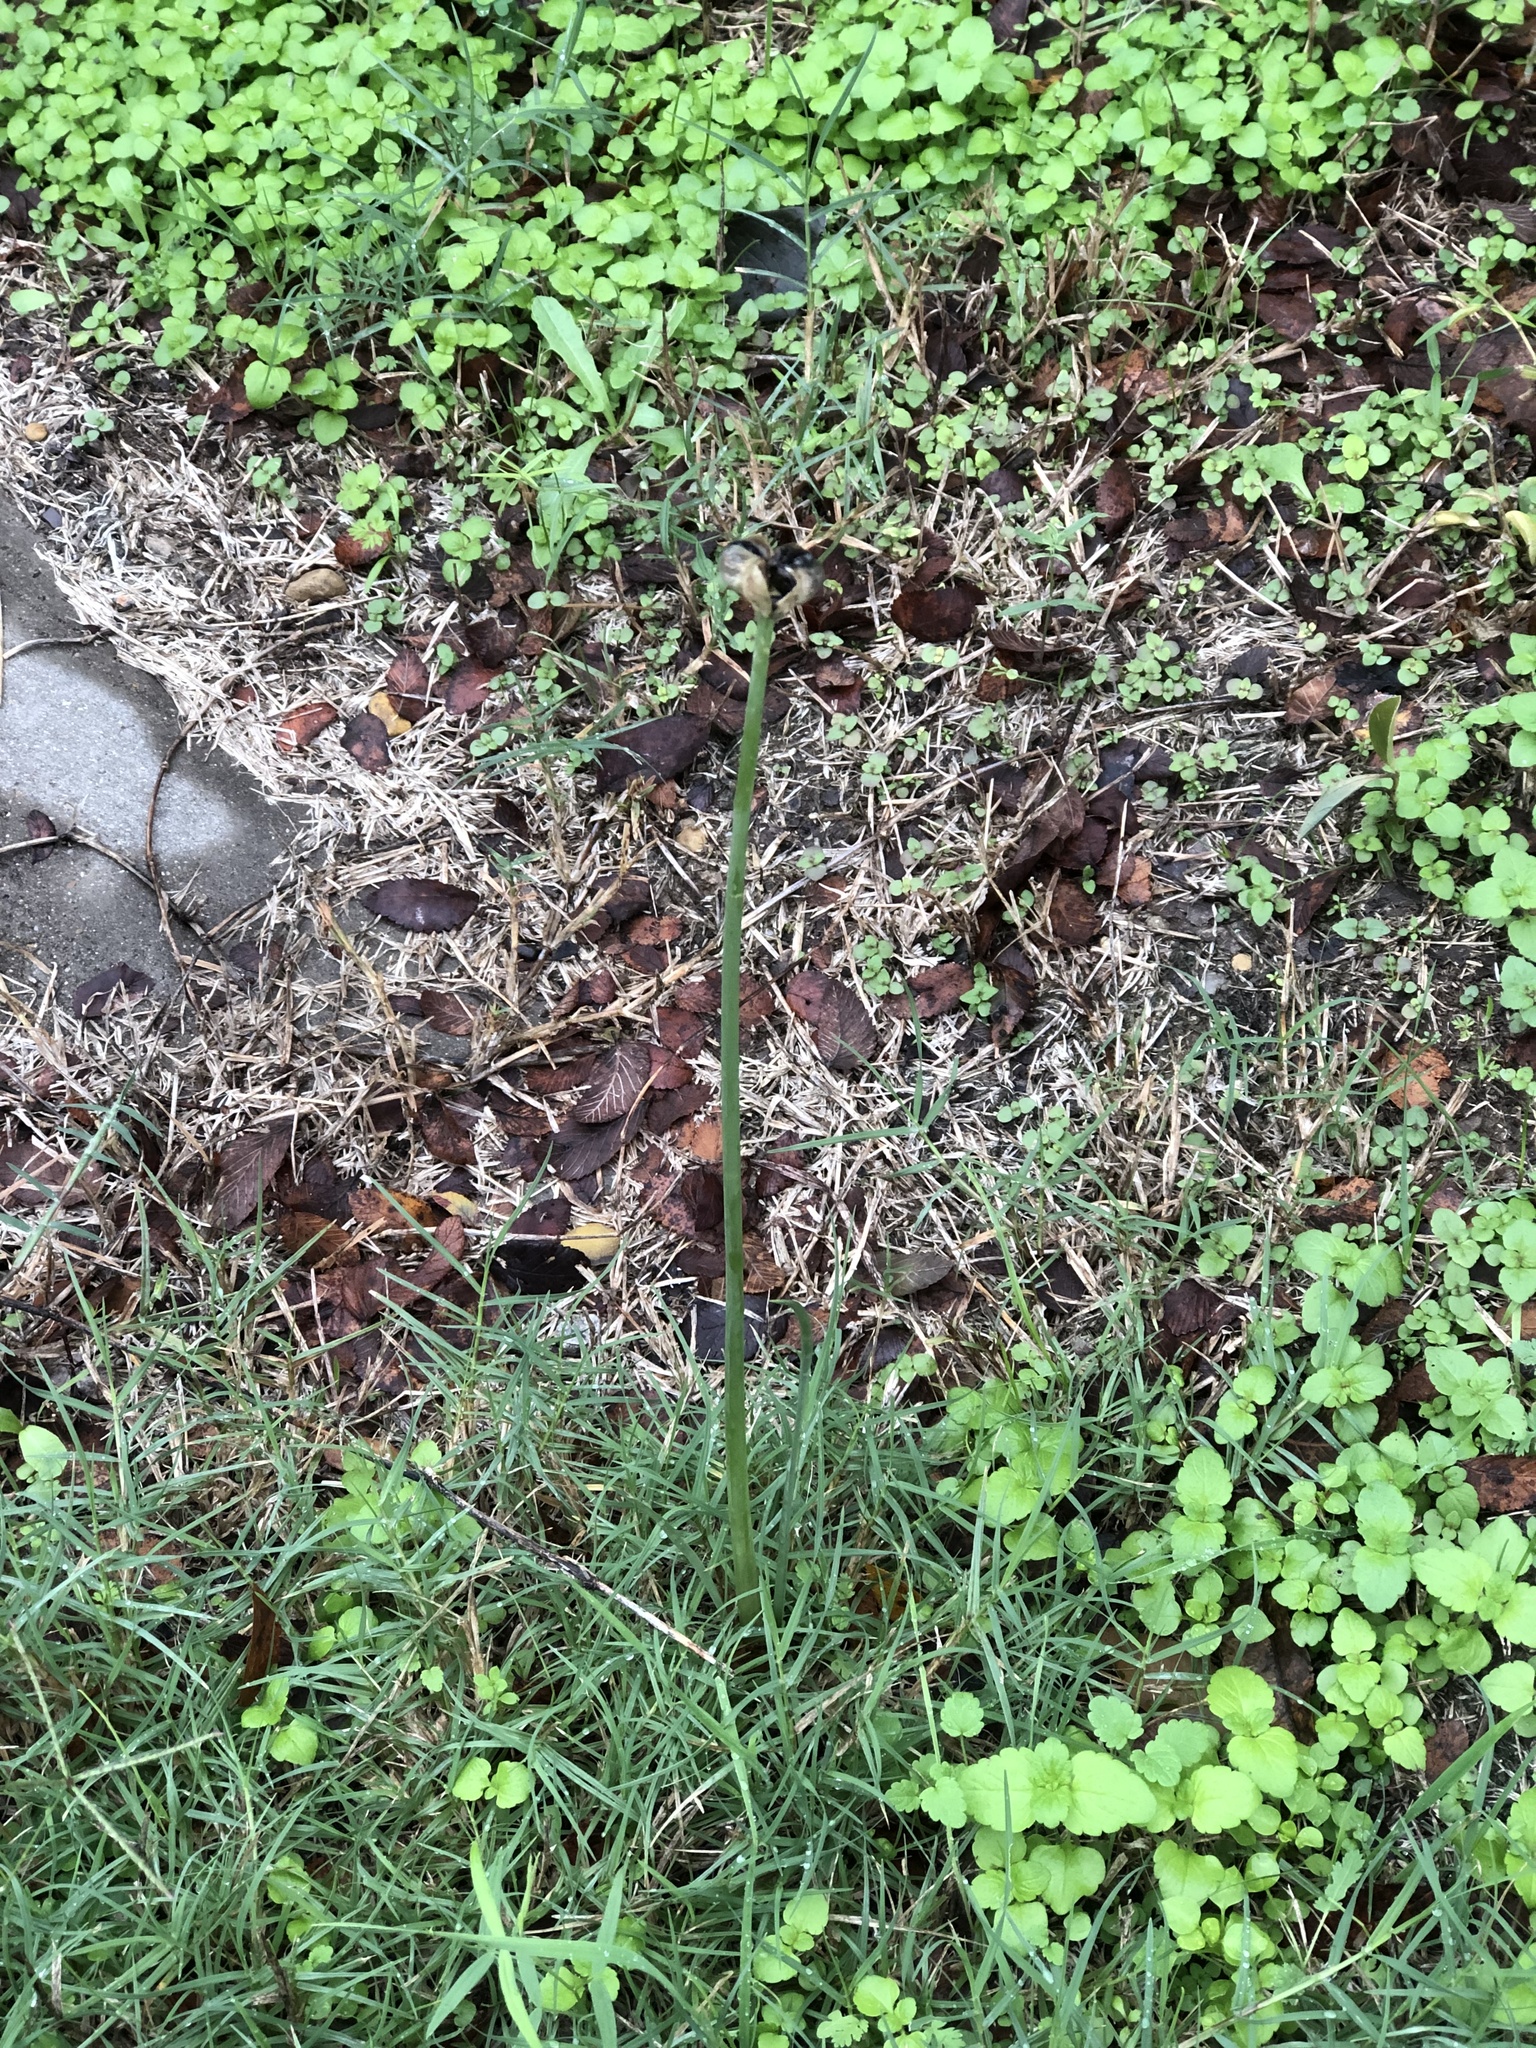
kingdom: Plantae
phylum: Tracheophyta
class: Liliopsida
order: Asparagales
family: Amaryllidaceae
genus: Zephyranthes
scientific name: Zephyranthes chlorosolen
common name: Evening rain-lily
